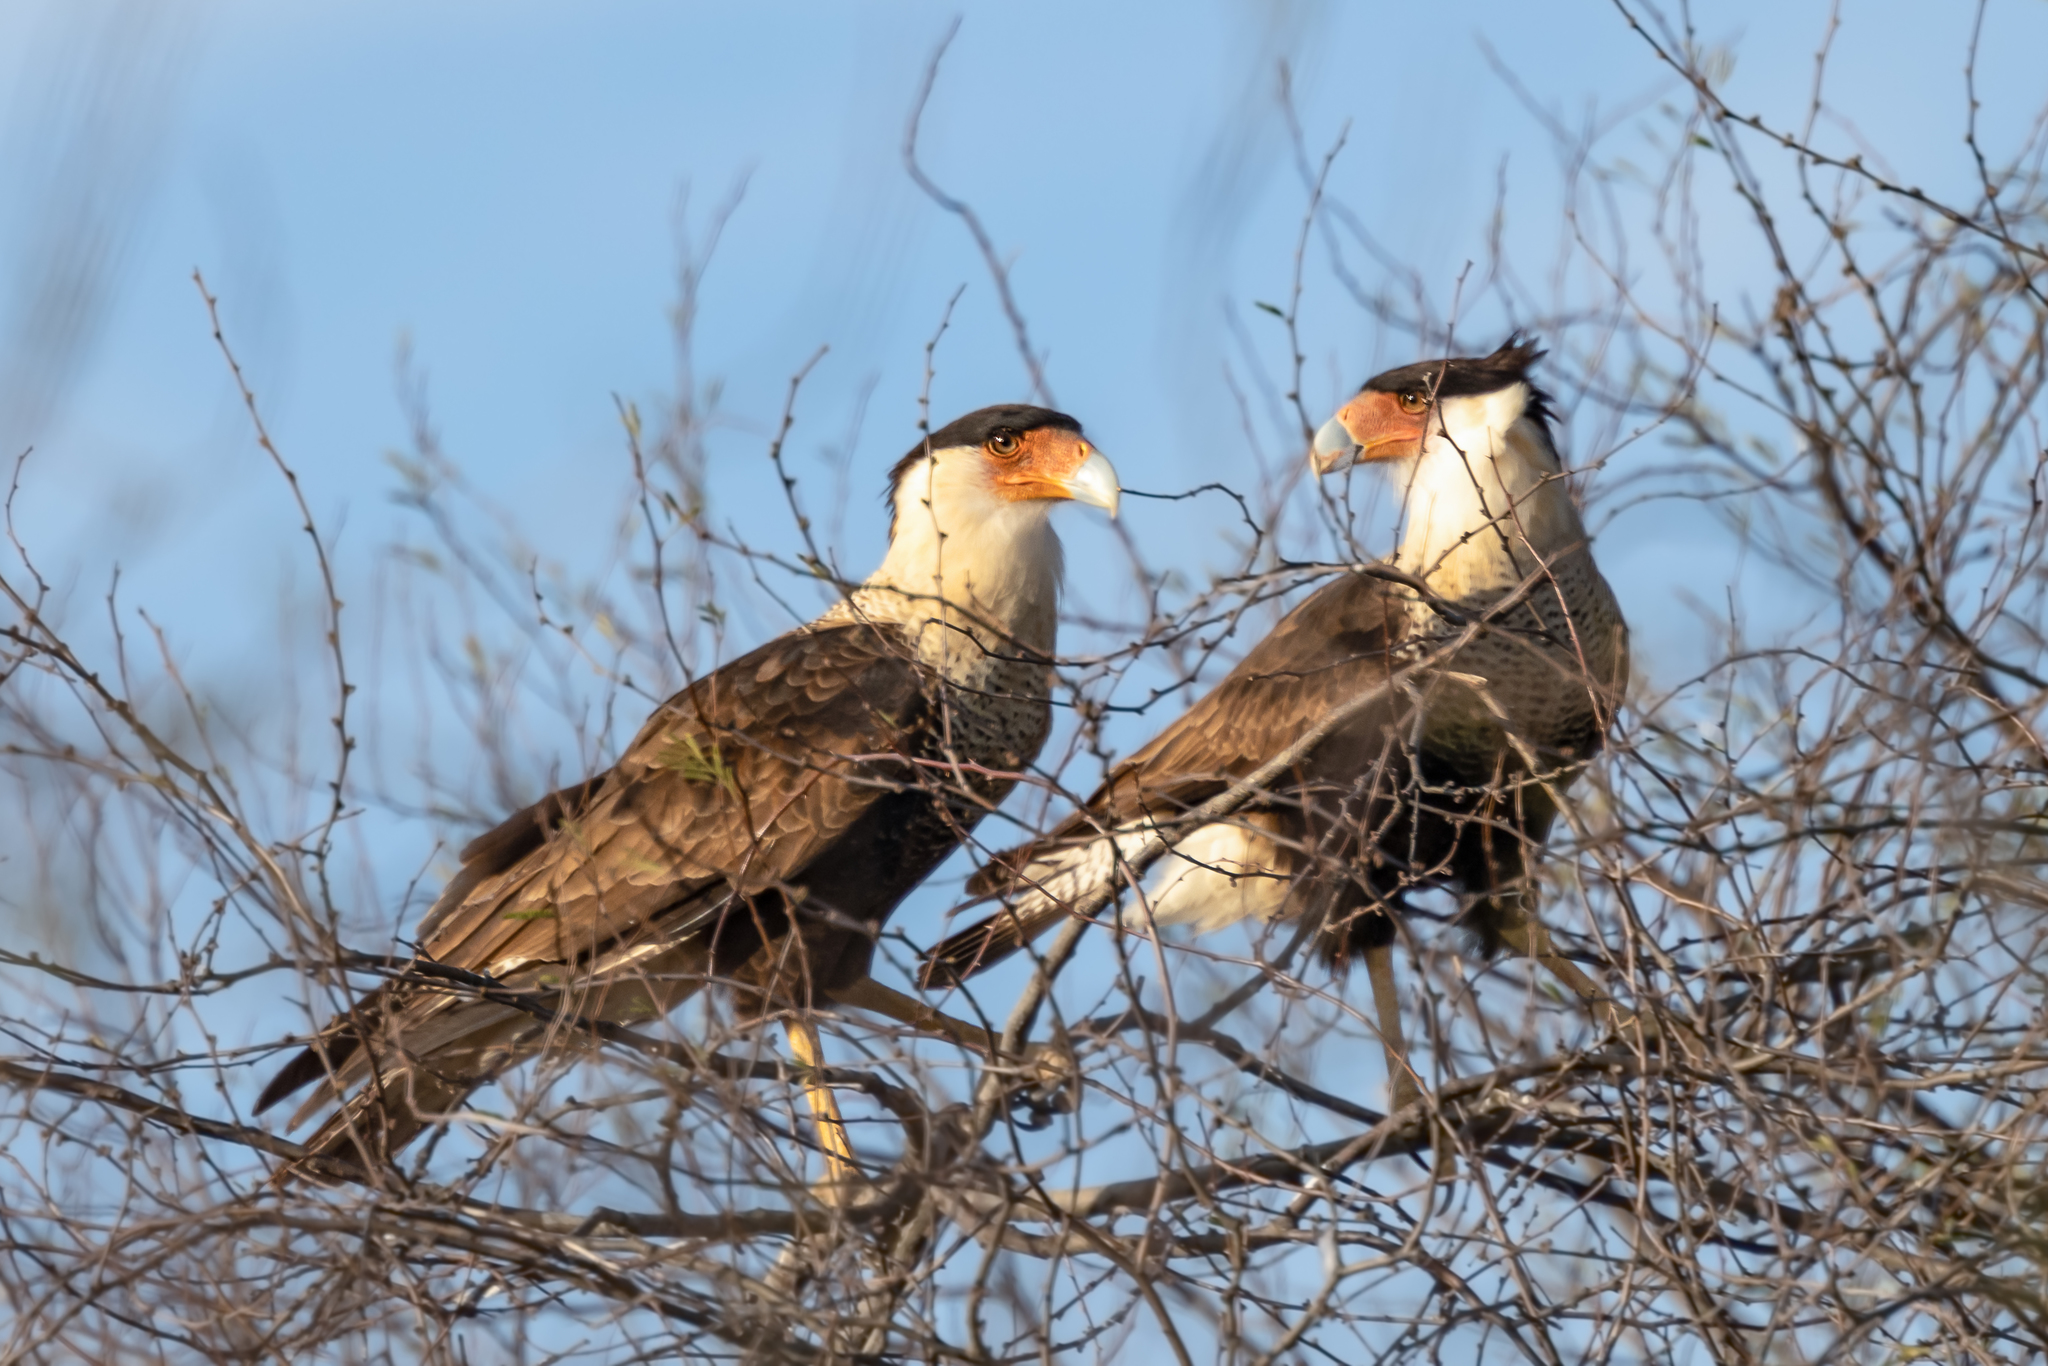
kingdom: Animalia
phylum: Chordata
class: Aves
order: Falconiformes
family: Falconidae
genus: Caracara
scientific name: Caracara plancus
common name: Southern caracara
